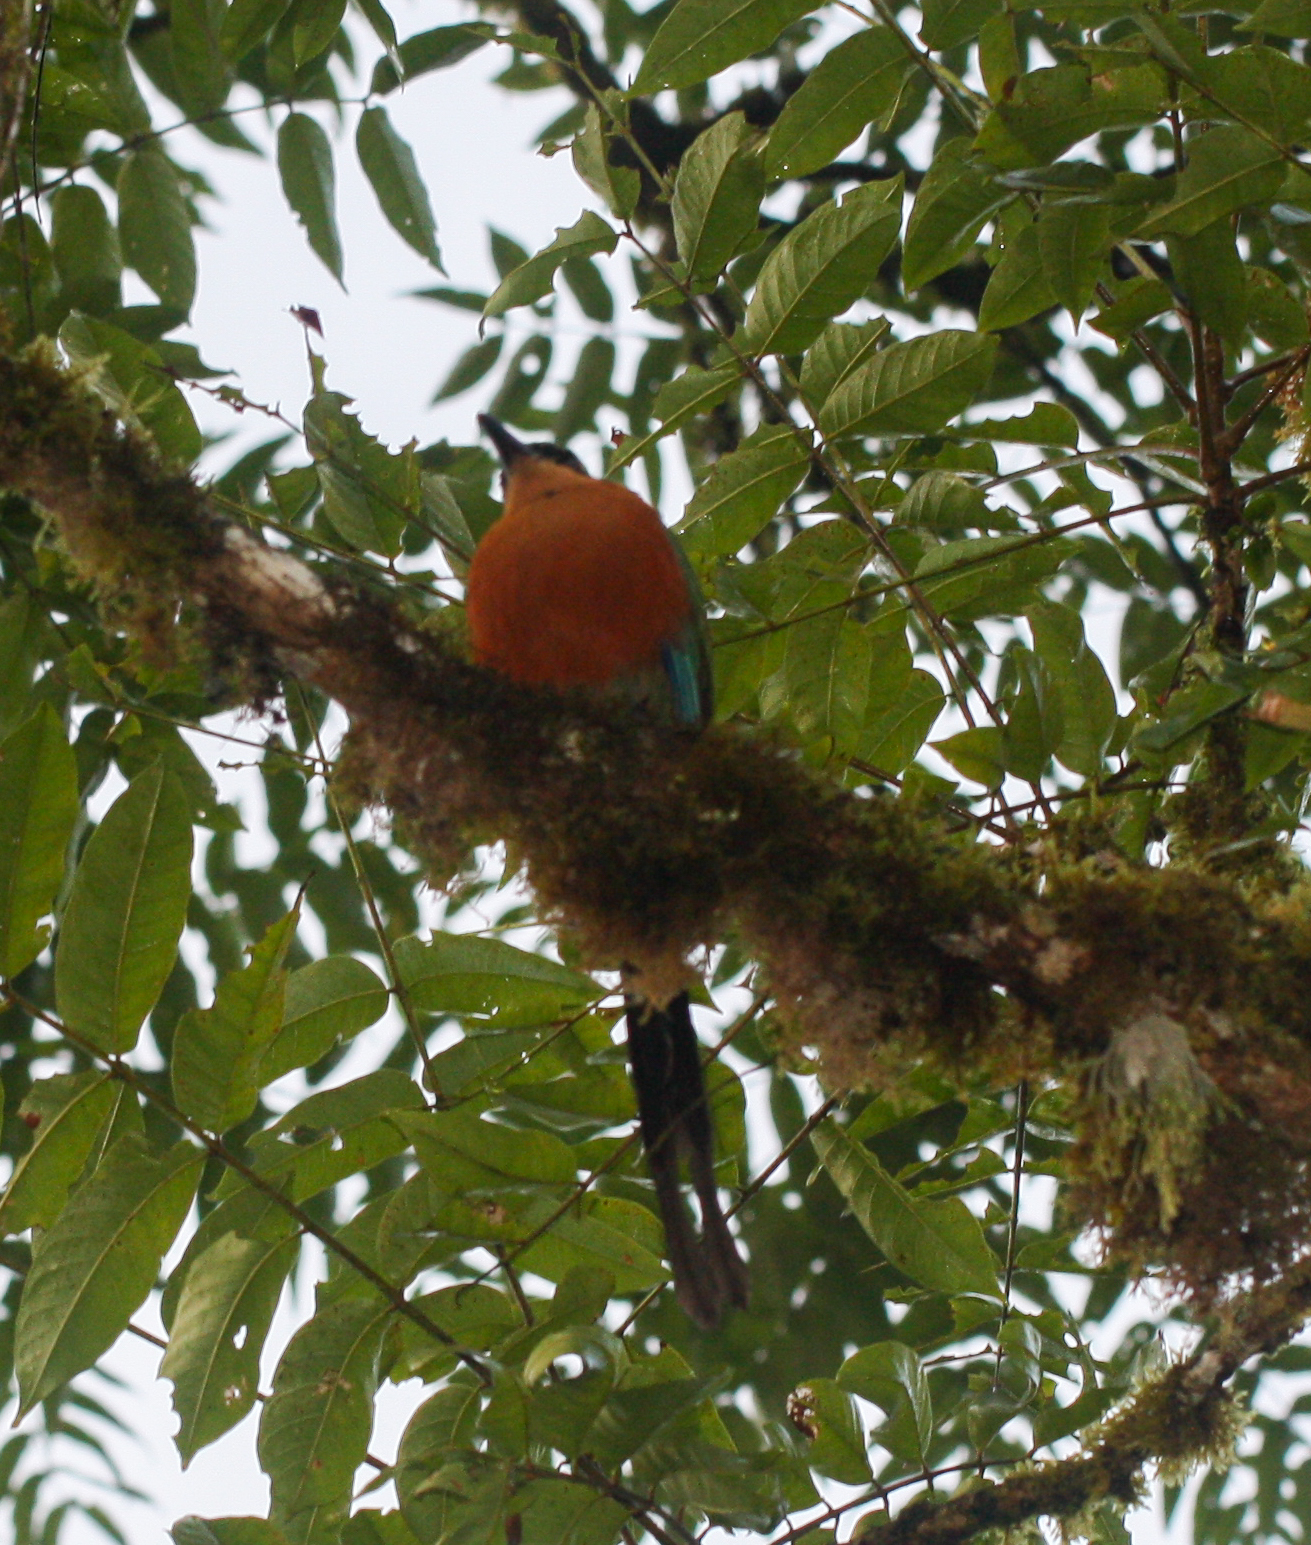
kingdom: Animalia
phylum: Chordata
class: Aves
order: Coraciiformes
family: Momotidae
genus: Baryphthengus
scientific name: Baryphthengus martii
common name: Rufous motmot
